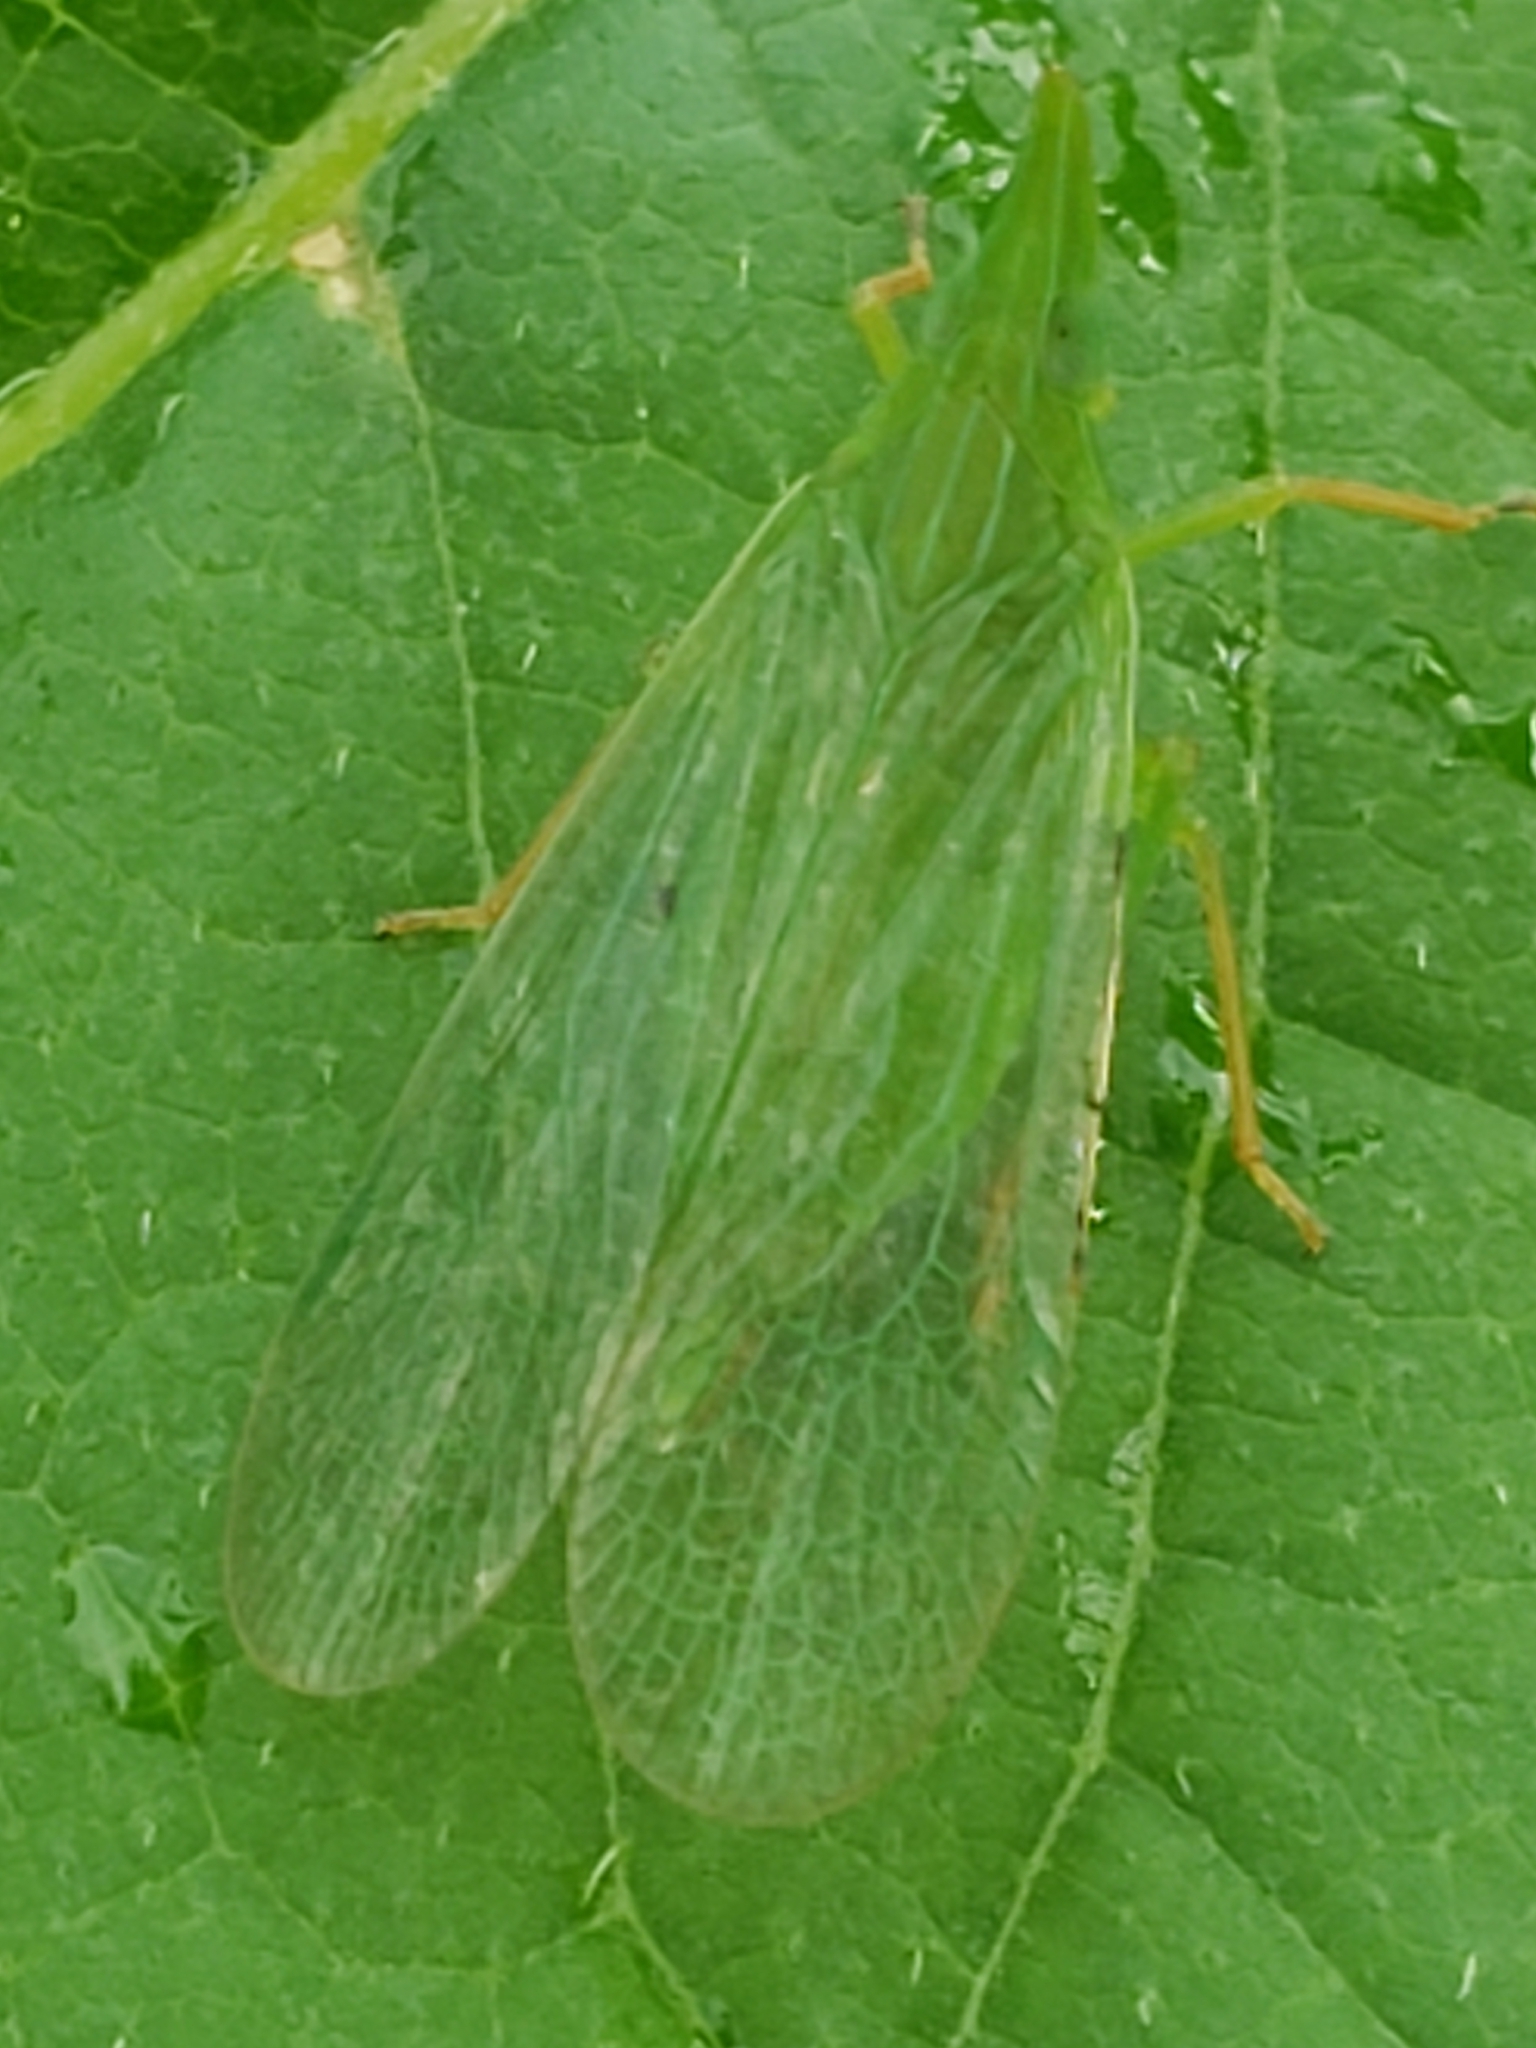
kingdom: Animalia
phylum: Arthropoda
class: Insecta
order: Hemiptera
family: Dictyopharidae
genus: Rhynchomitra
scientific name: Rhynchomitra microrhina
